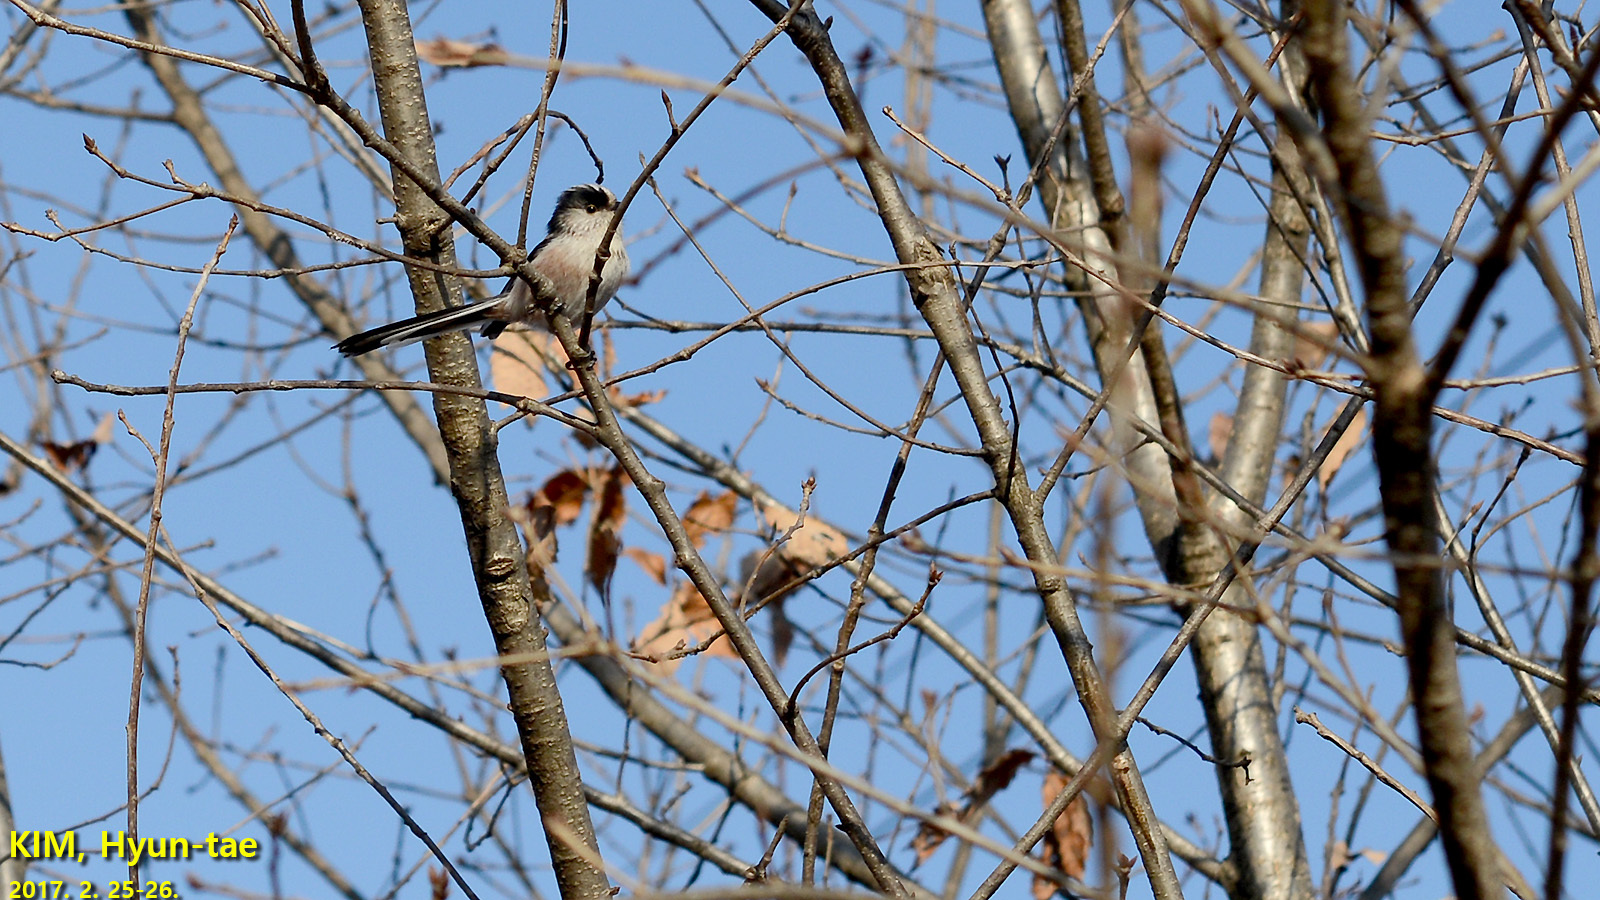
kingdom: Animalia
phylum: Chordata
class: Aves
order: Passeriformes
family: Aegithalidae
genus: Aegithalos
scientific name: Aegithalos caudatus
